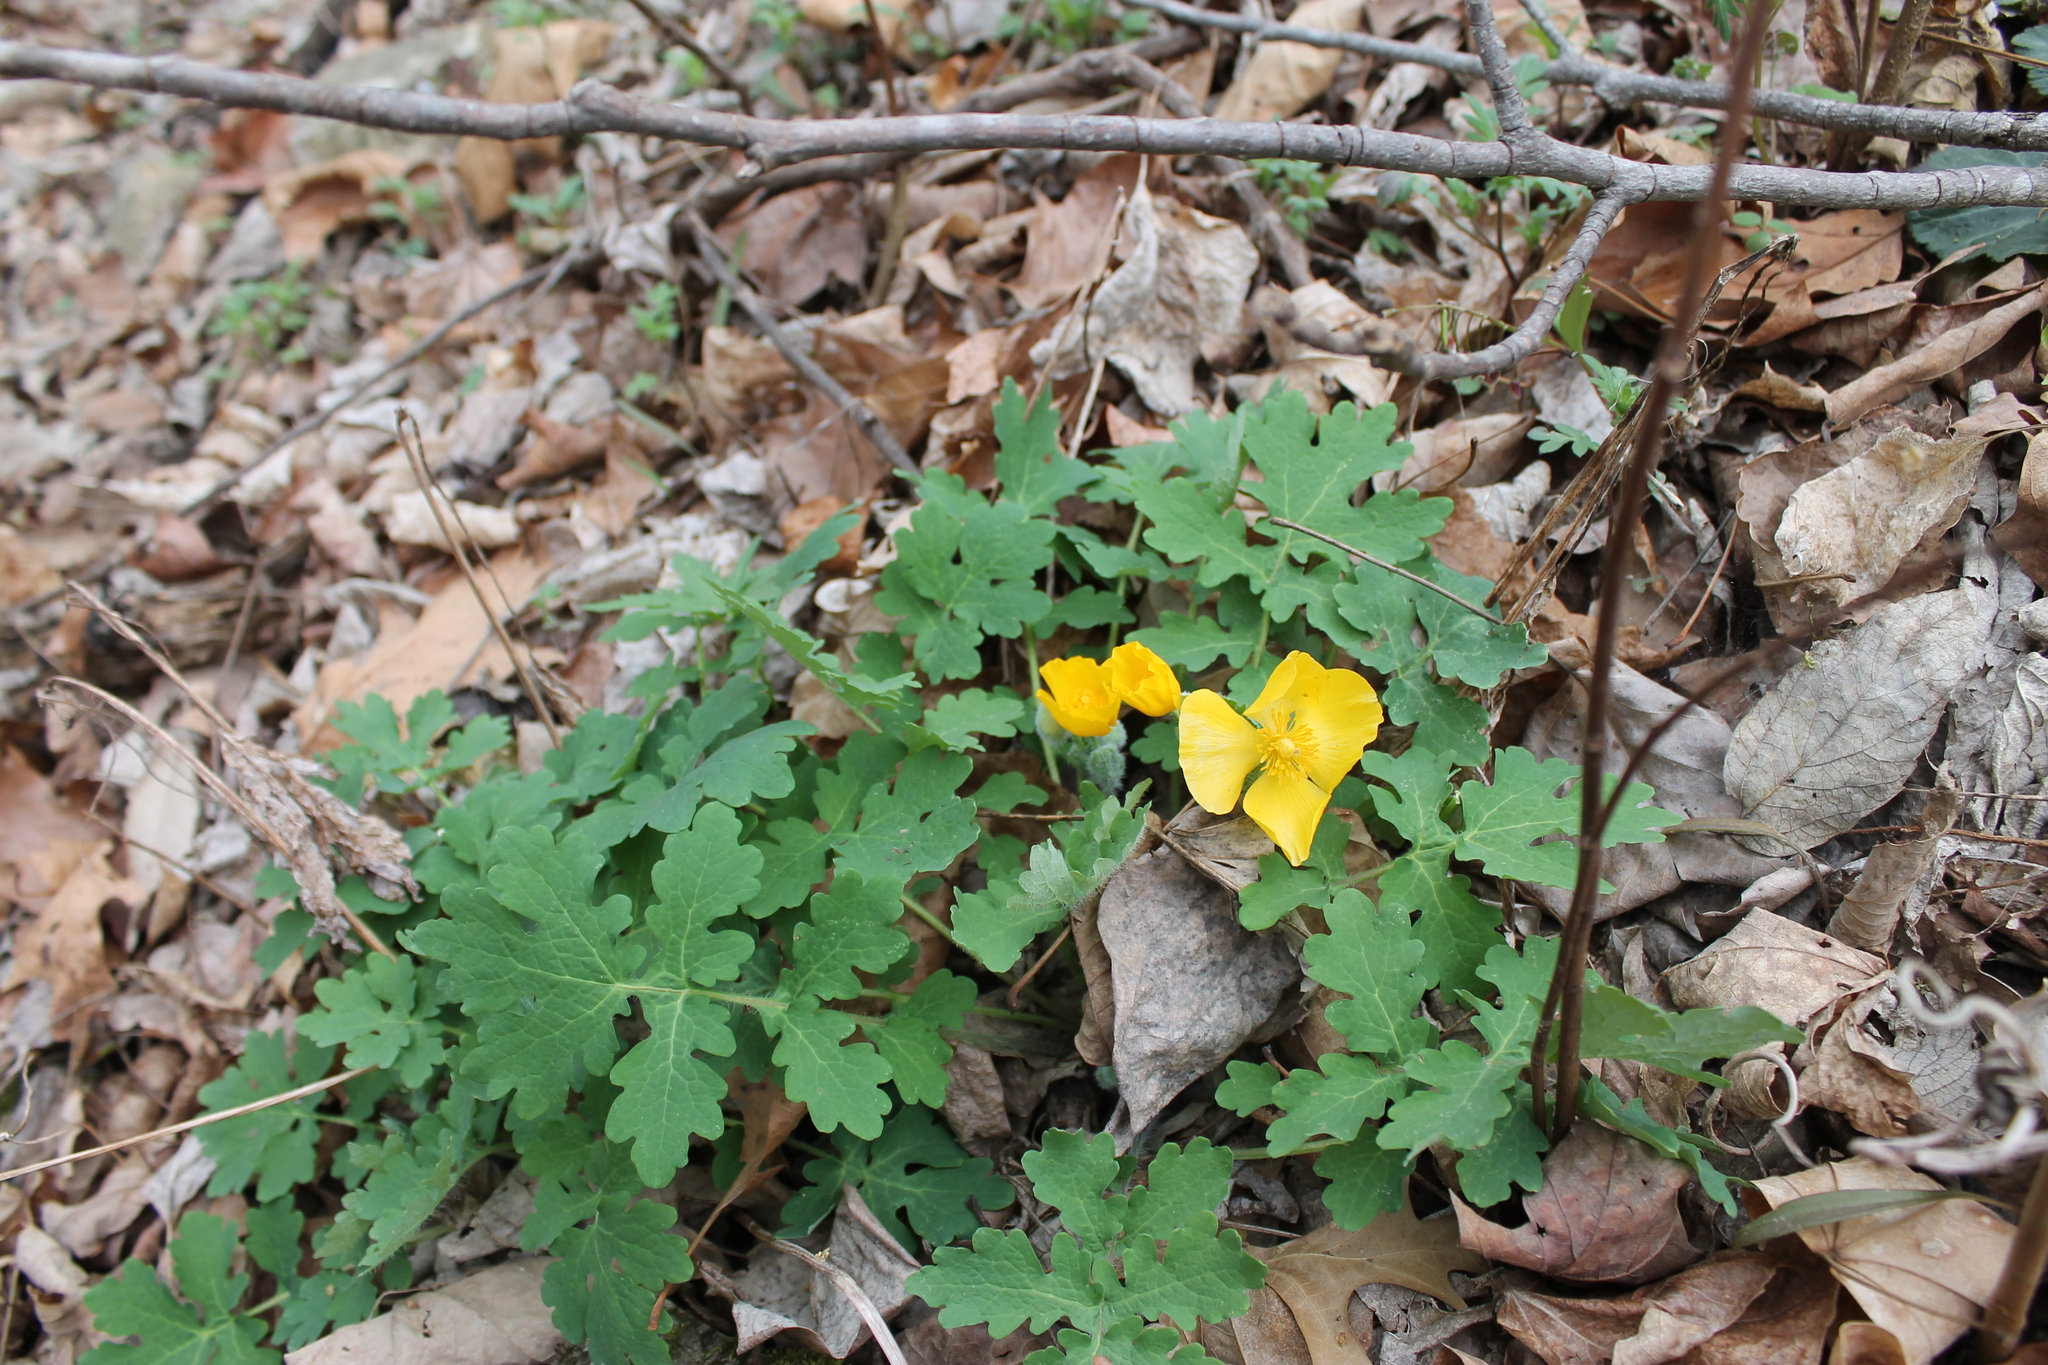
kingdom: Plantae
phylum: Tracheophyta
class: Magnoliopsida
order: Ranunculales
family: Papaveraceae
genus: Stylophorum
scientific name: Stylophorum diphyllum
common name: Celandine poppy
